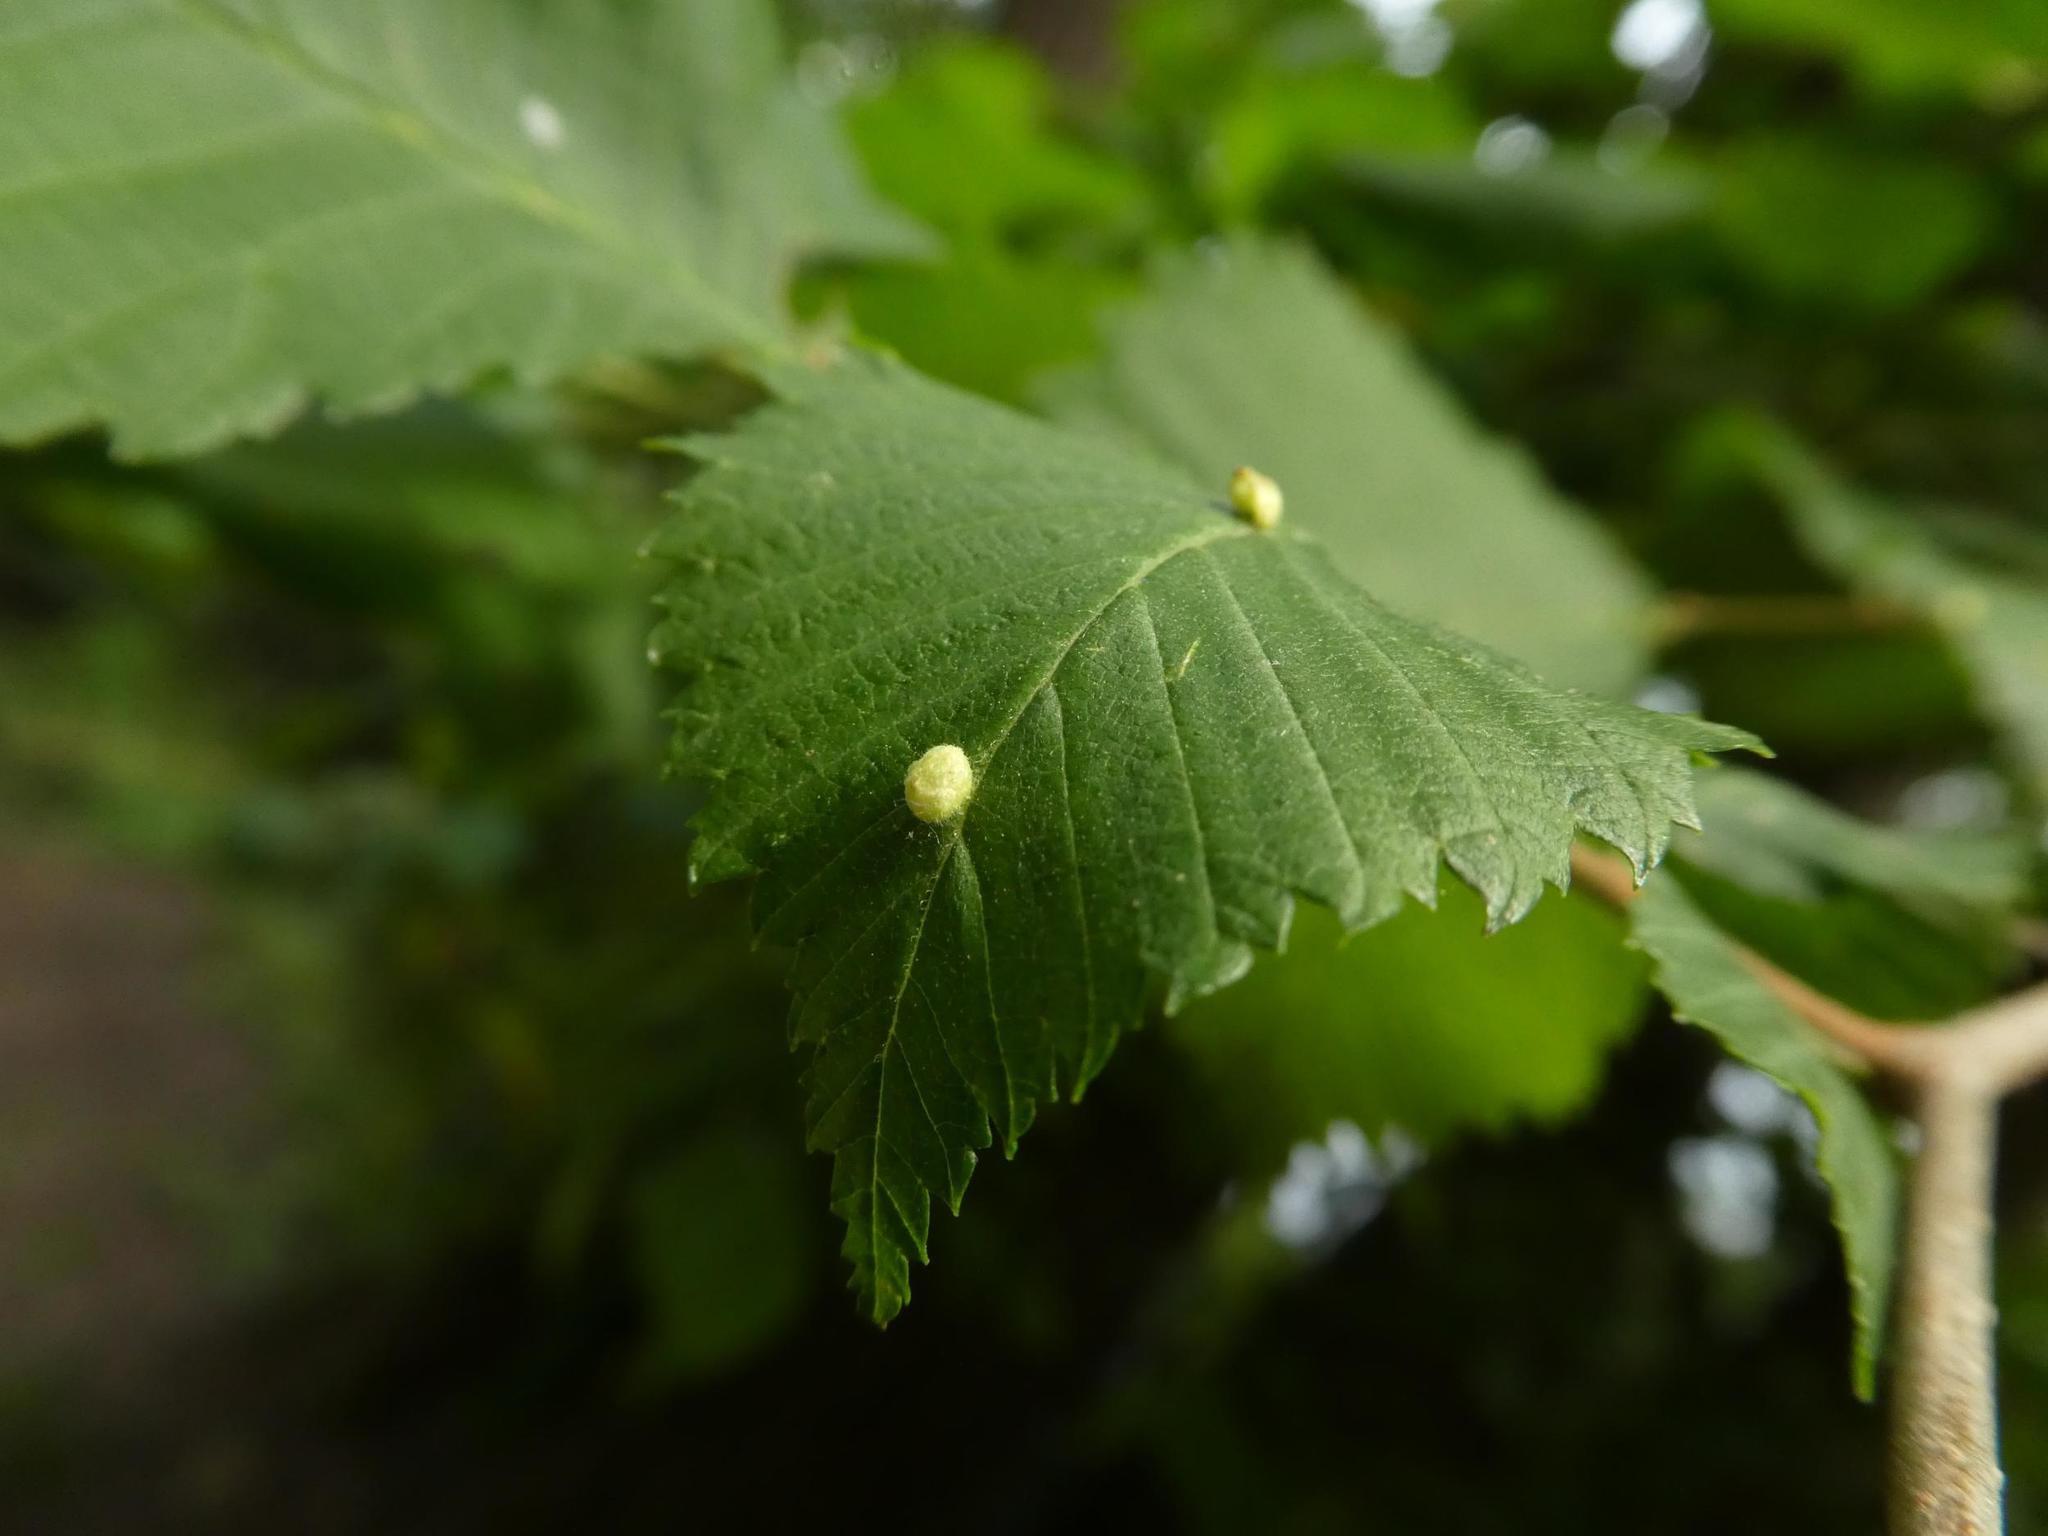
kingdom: Animalia
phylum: Arthropoda
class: Arachnida
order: Trombidiformes
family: Eriophyidae
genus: Aceria
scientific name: Aceria brevipunctata
